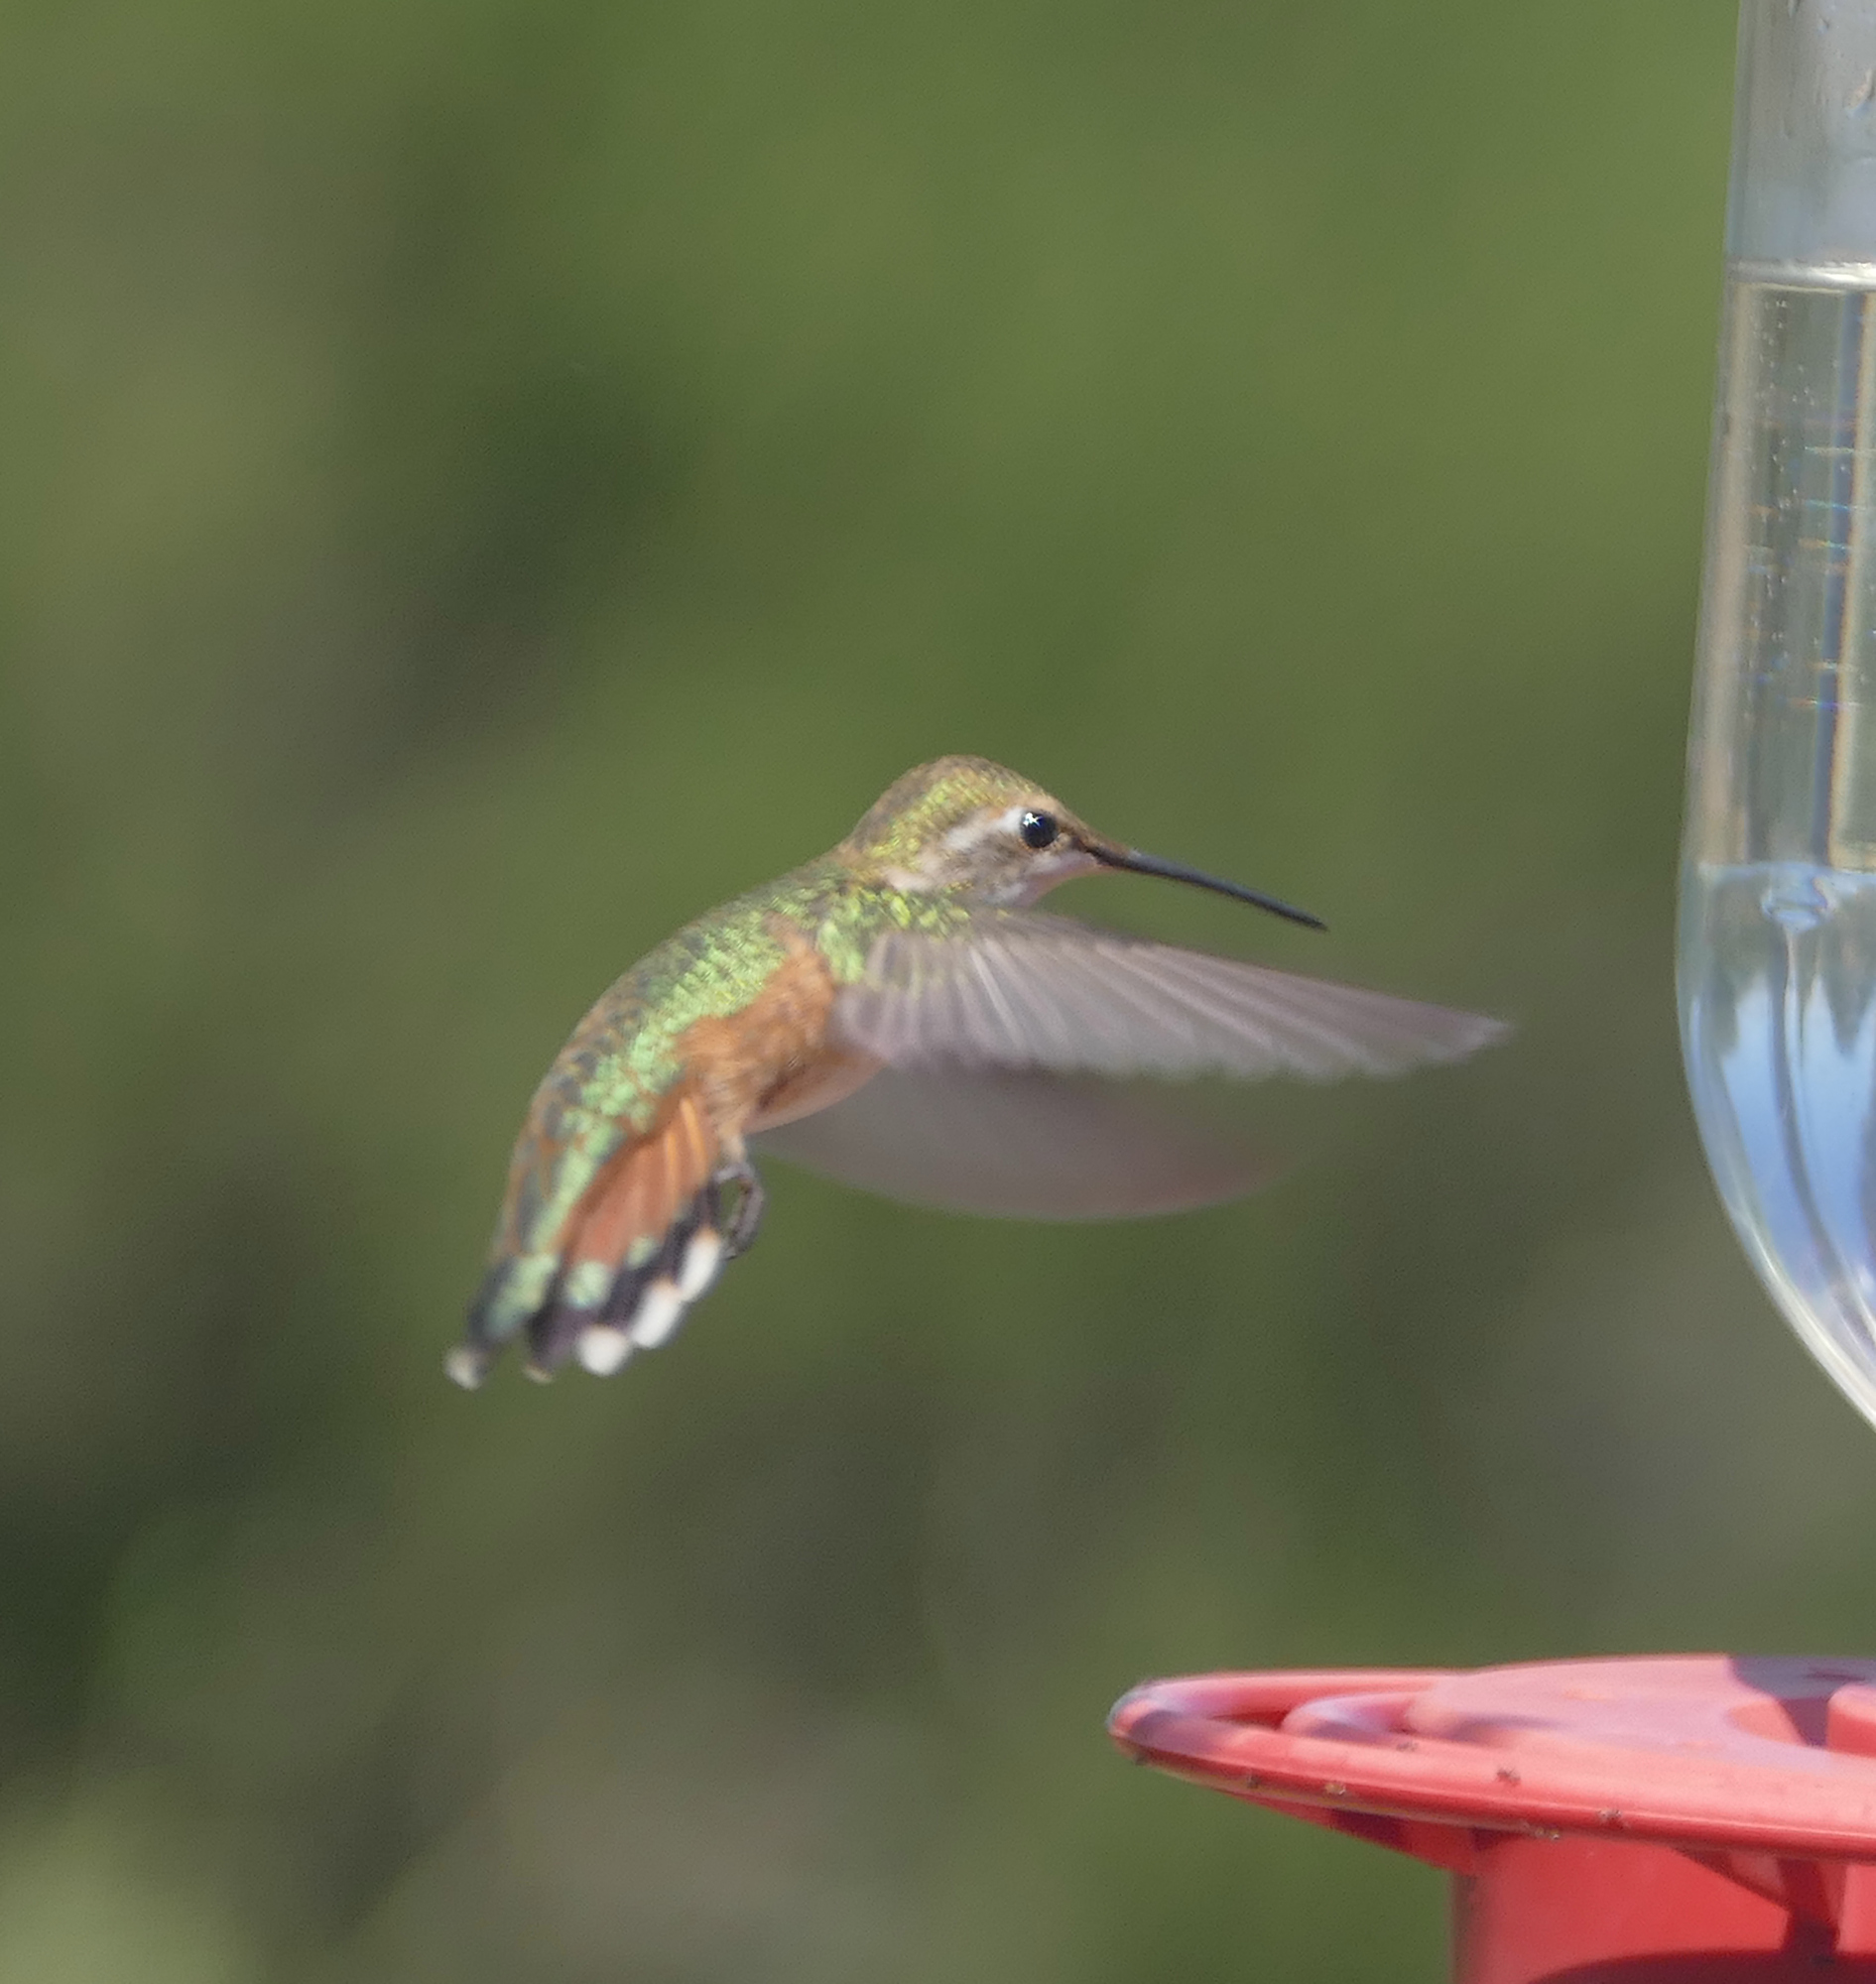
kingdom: Animalia
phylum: Chordata
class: Aves
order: Apodiformes
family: Trochilidae
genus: Selasphorus
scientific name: Selasphorus rufus
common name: Rufous hummingbird
